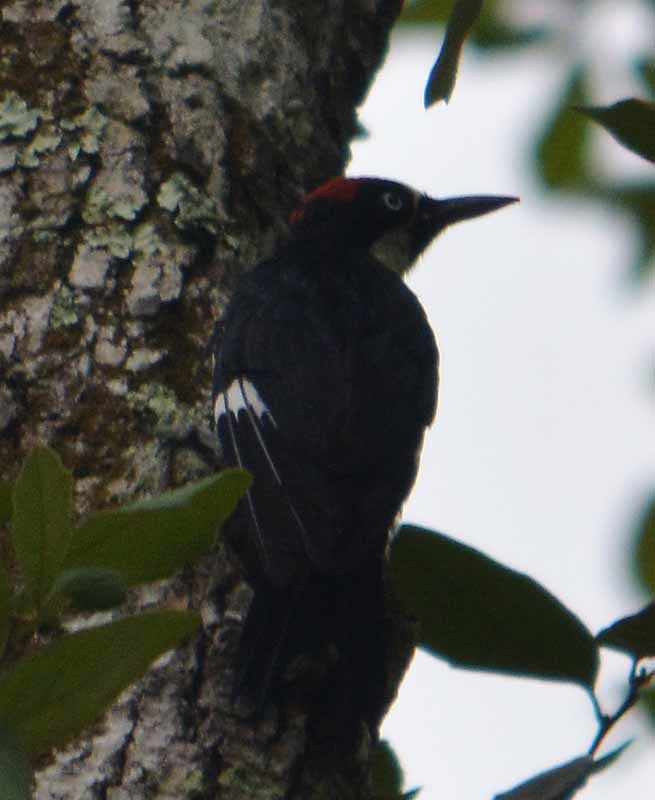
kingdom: Animalia
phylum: Chordata
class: Aves
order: Piciformes
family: Picidae
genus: Melanerpes
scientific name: Melanerpes formicivorus
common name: Acorn woodpecker
